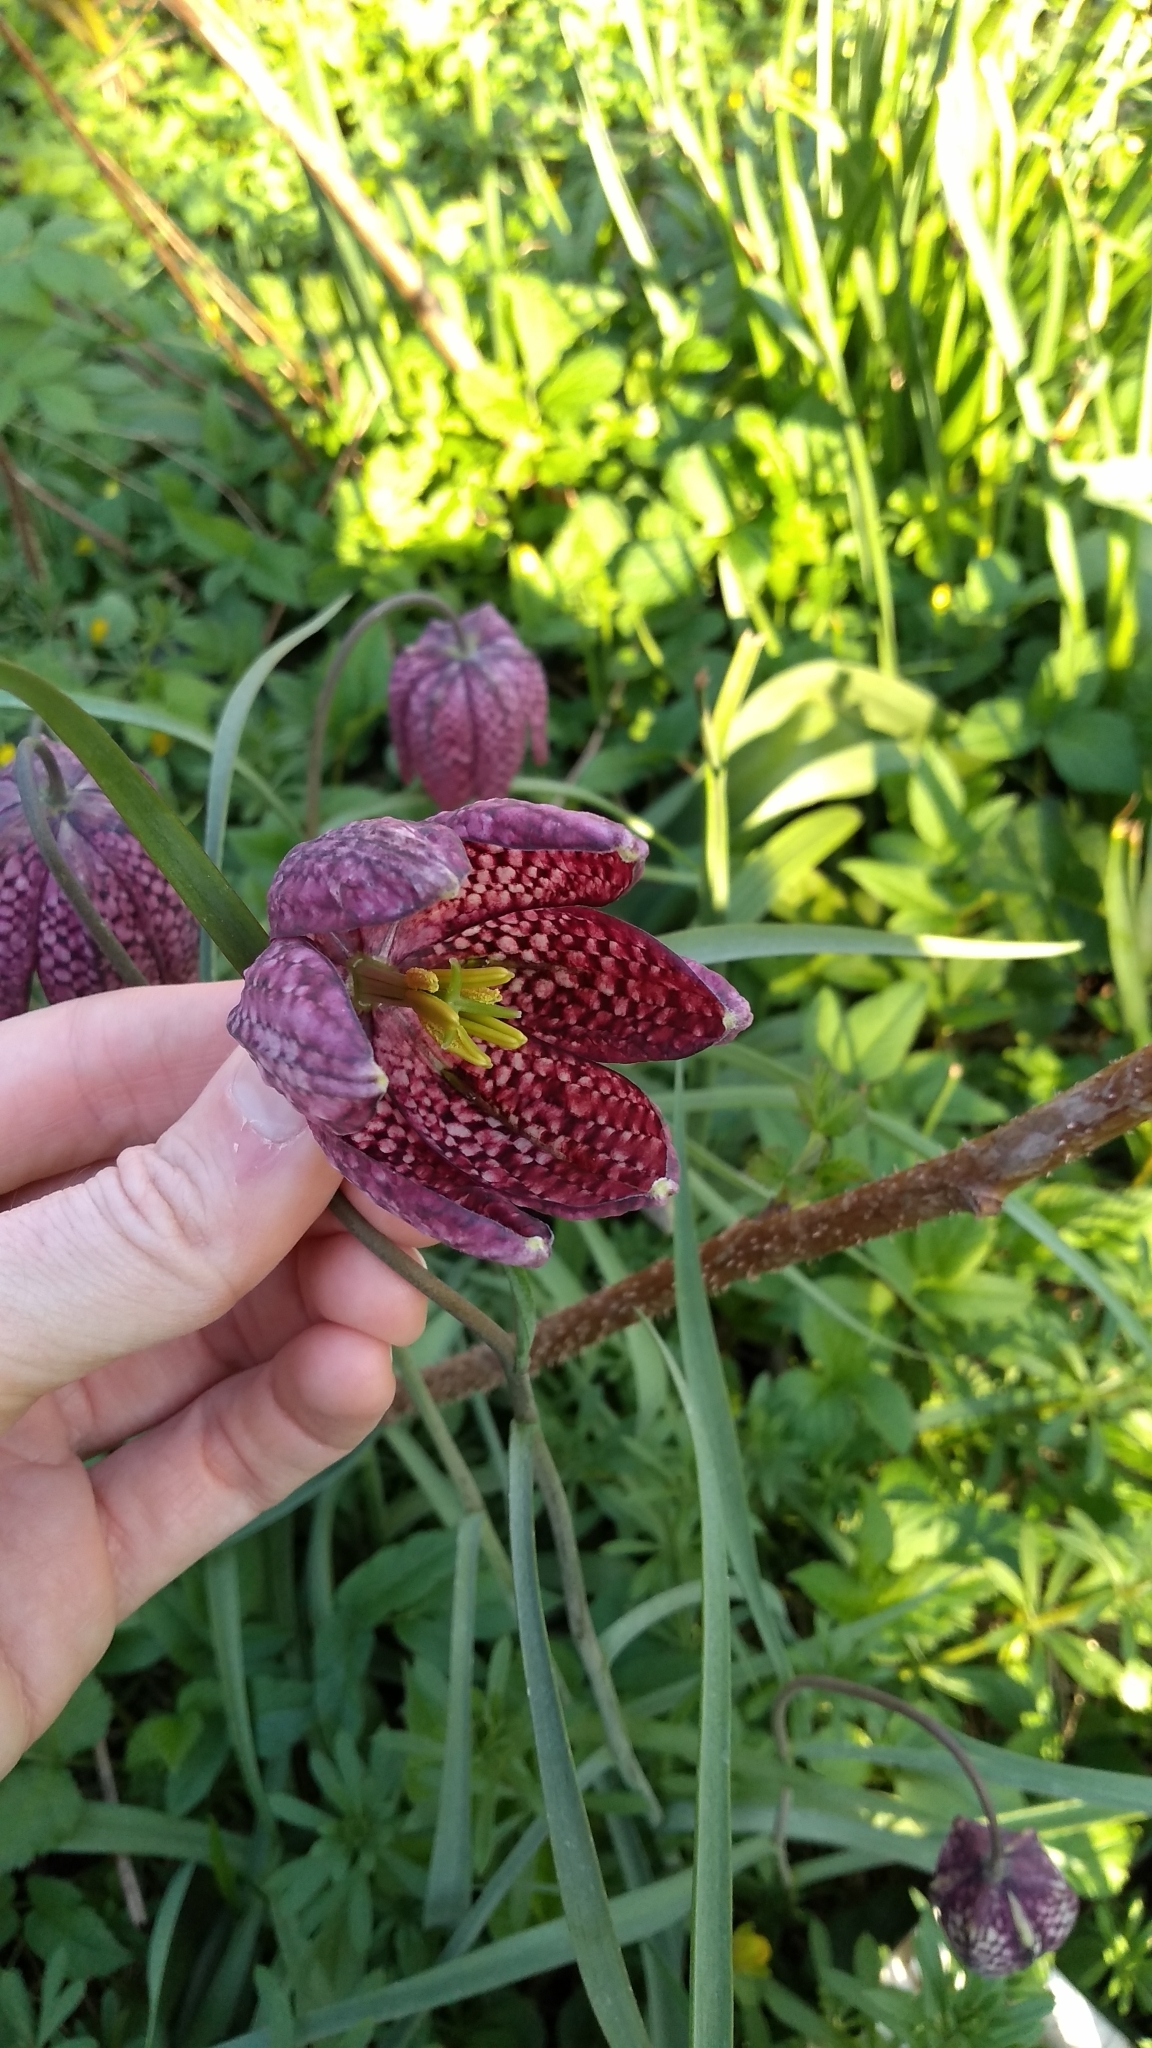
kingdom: Plantae
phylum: Tracheophyta
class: Liliopsida
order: Liliales
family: Liliaceae
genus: Fritillaria
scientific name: Fritillaria meleagris
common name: Fritillary
